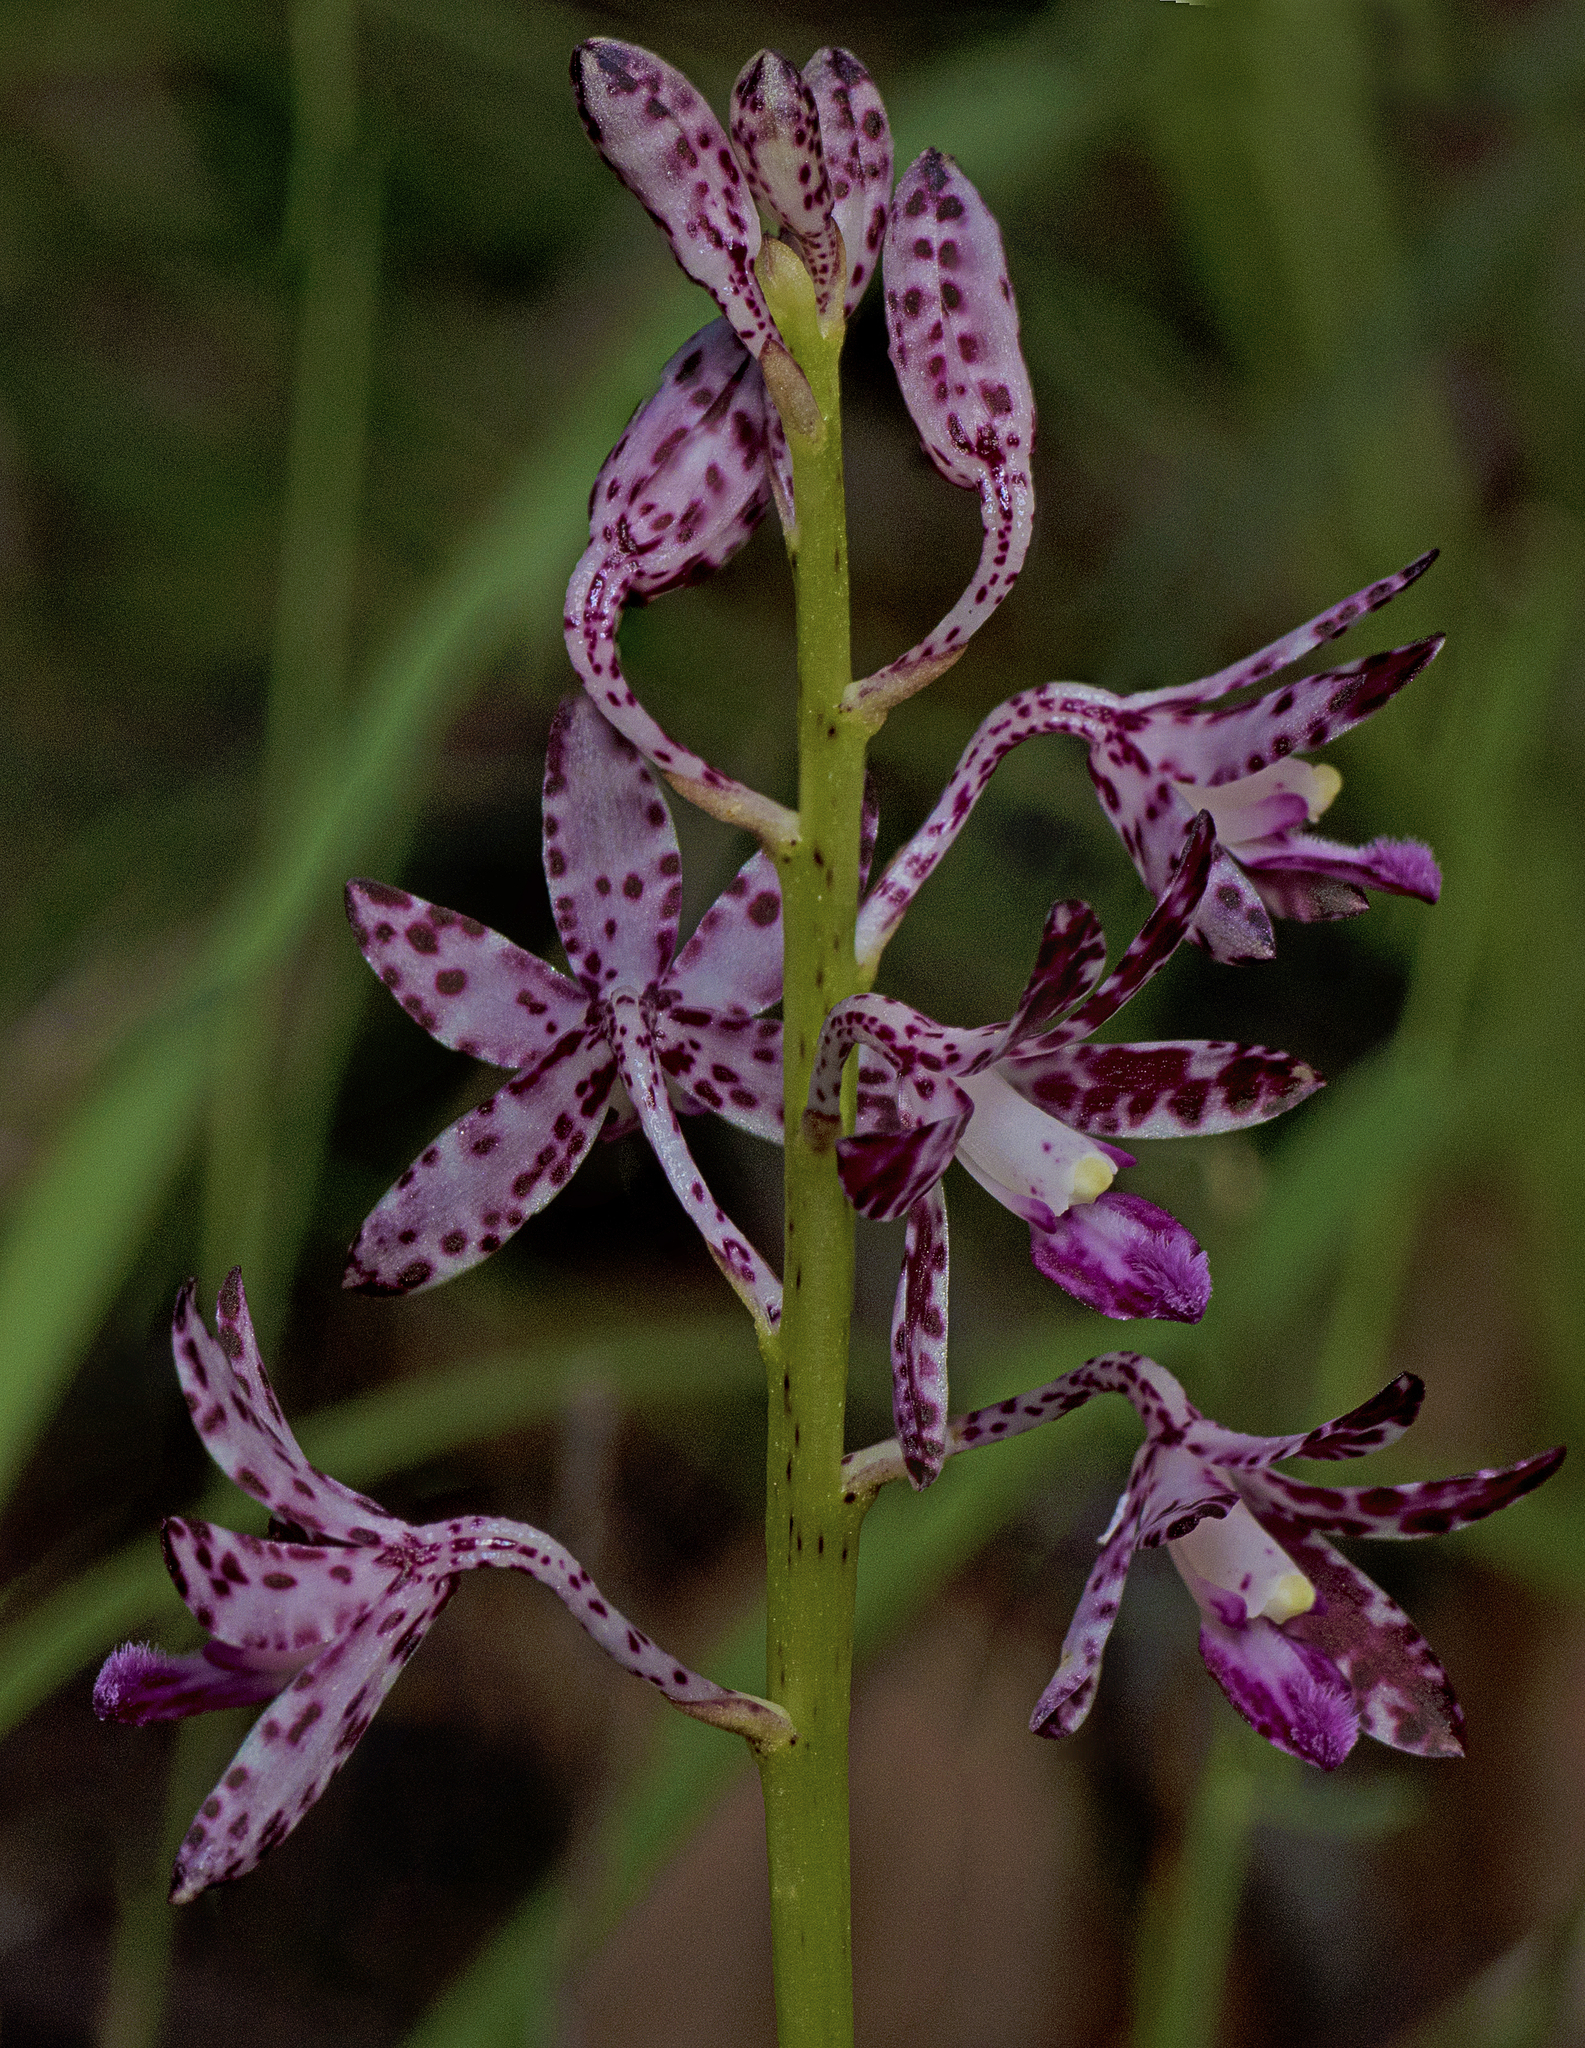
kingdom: Plantae
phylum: Tracheophyta
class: Liliopsida
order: Asparagales
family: Orchidaceae
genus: Dipodium
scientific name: Dipodium variegatum
